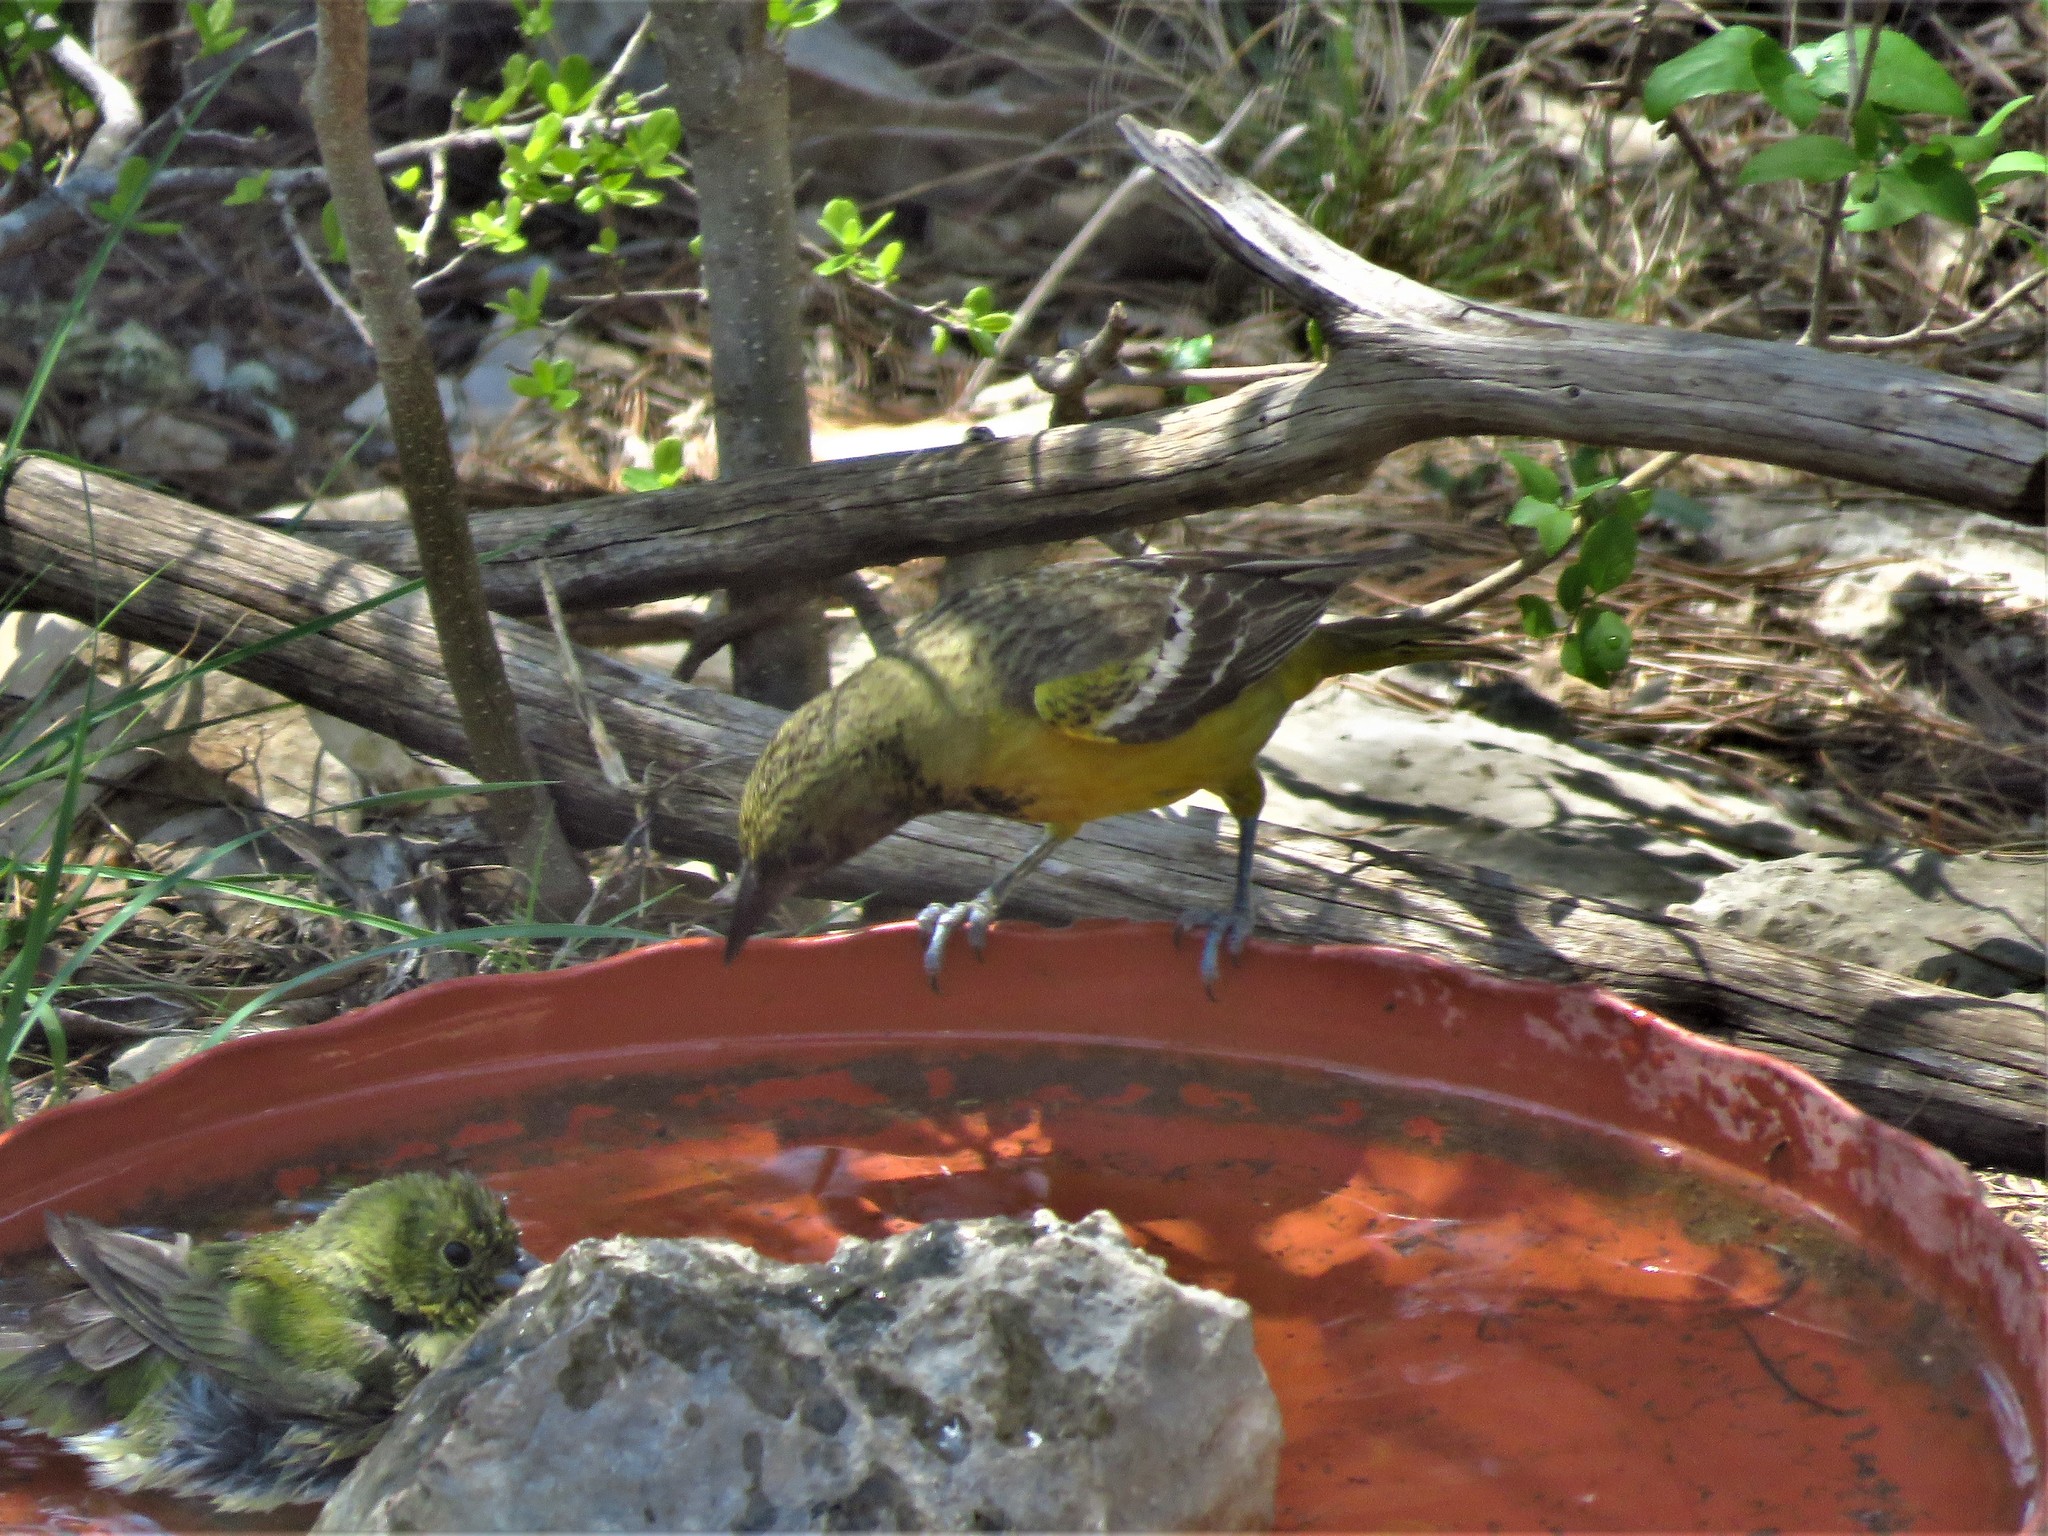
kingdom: Animalia
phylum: Chordata
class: Aves
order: Passeriformes
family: Icteridae
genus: Icterus
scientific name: Icterus parisorum
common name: Scott's oriole
